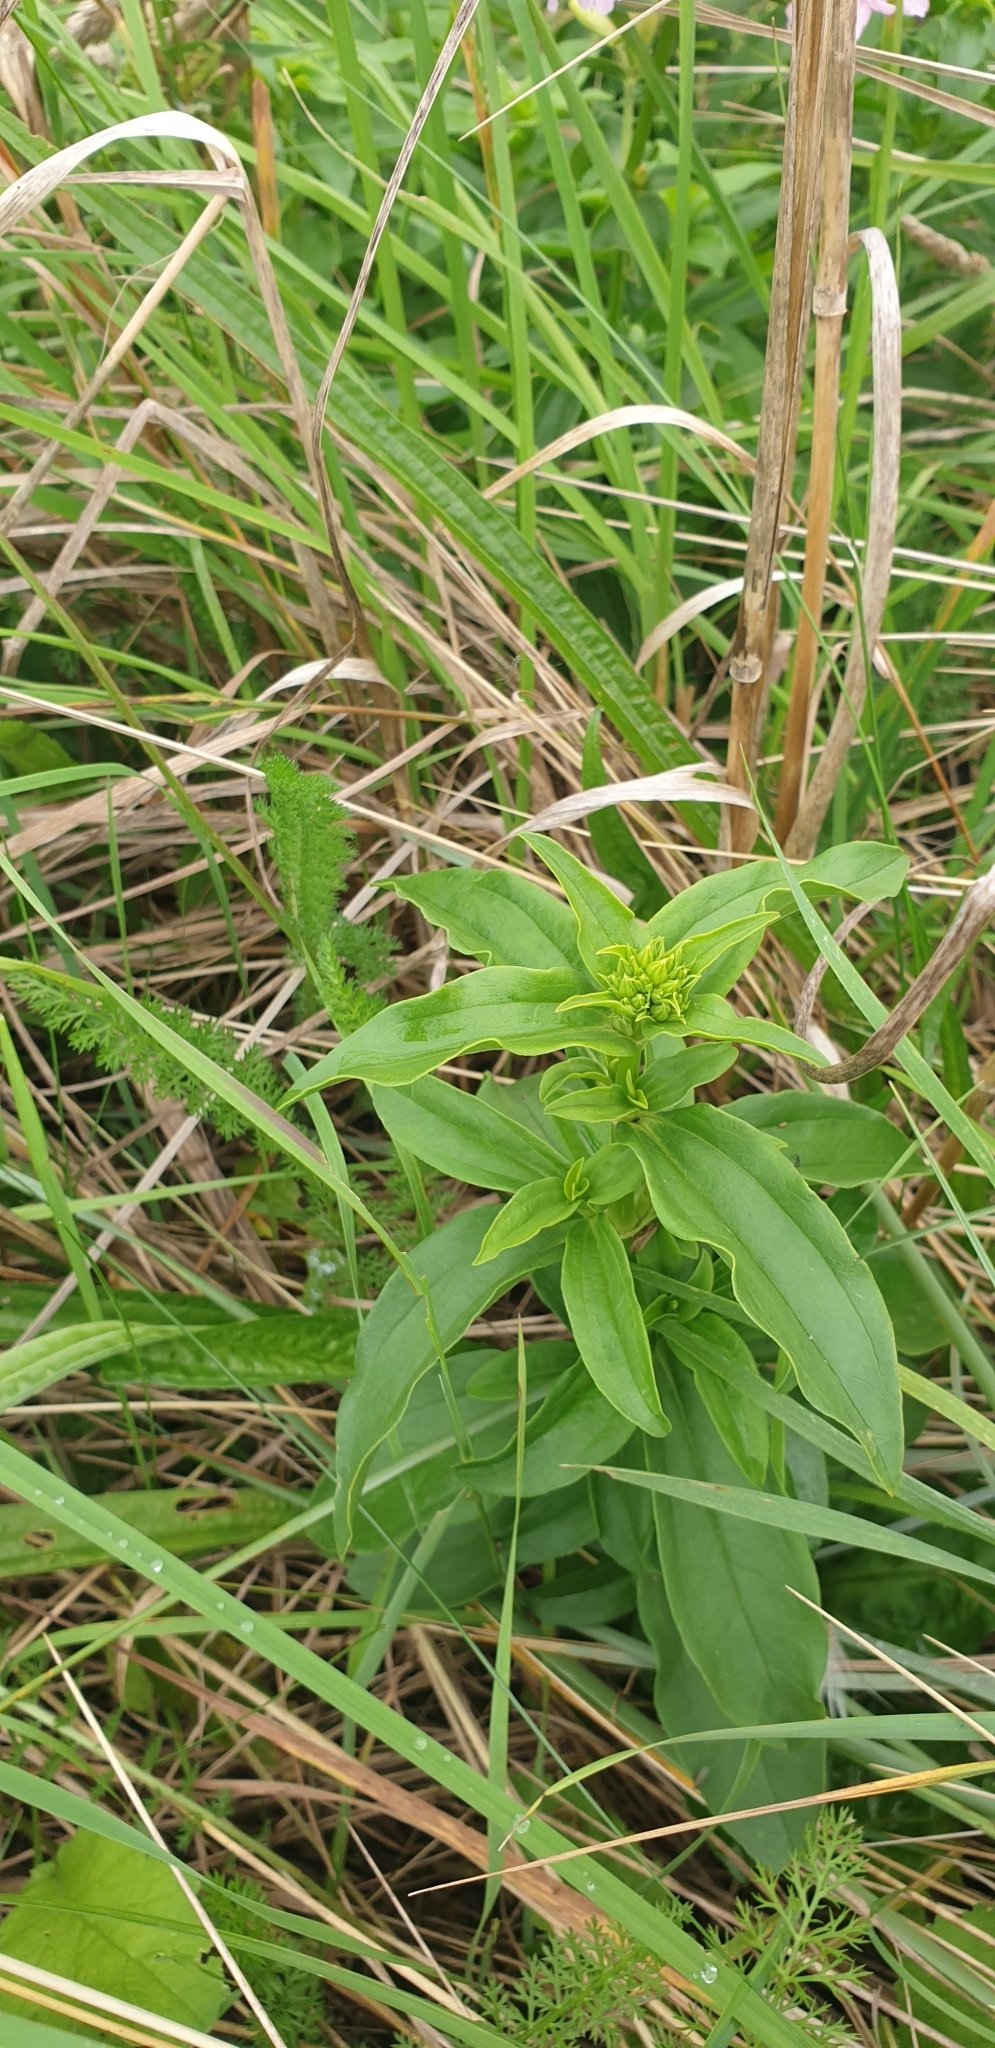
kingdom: Plantae
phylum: Tracheophyta
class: Magnoliopsida
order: Caryophyllales
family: Caryophyllaceae
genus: Saponaria
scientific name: Saponaria officinalis
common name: Soapwort
